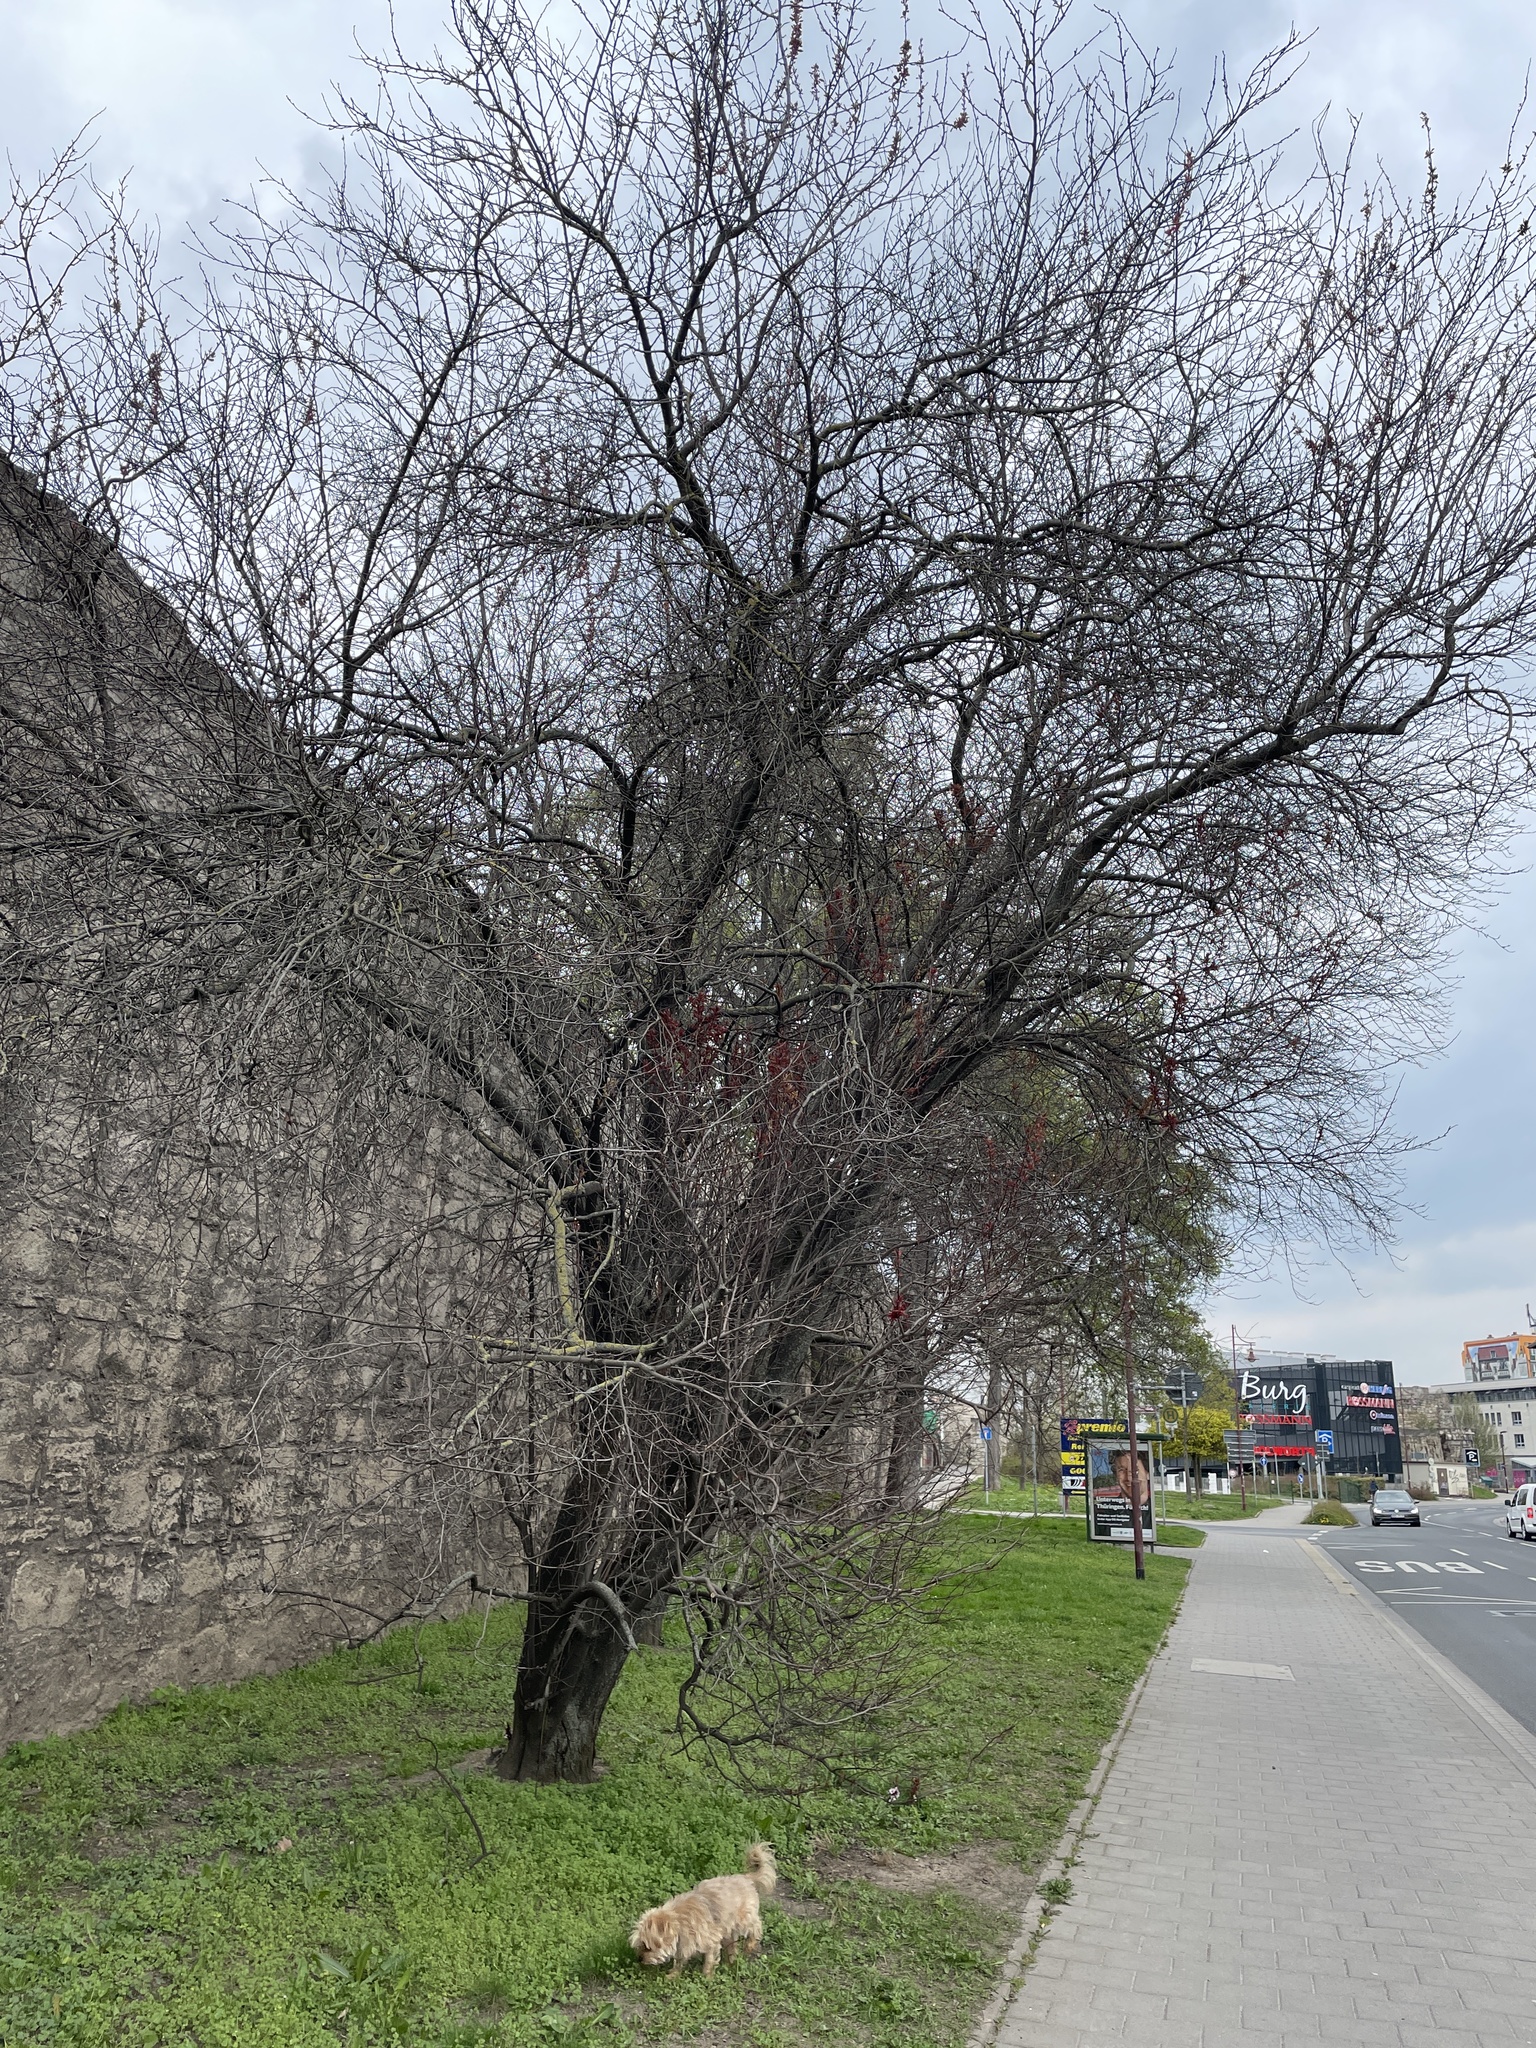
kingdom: Plantae
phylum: Tracheophyta
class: Magnoliopsida
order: Rosales
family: Rosaceae
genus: Prunus
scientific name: Prunus cerasifera
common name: Cherry plum
